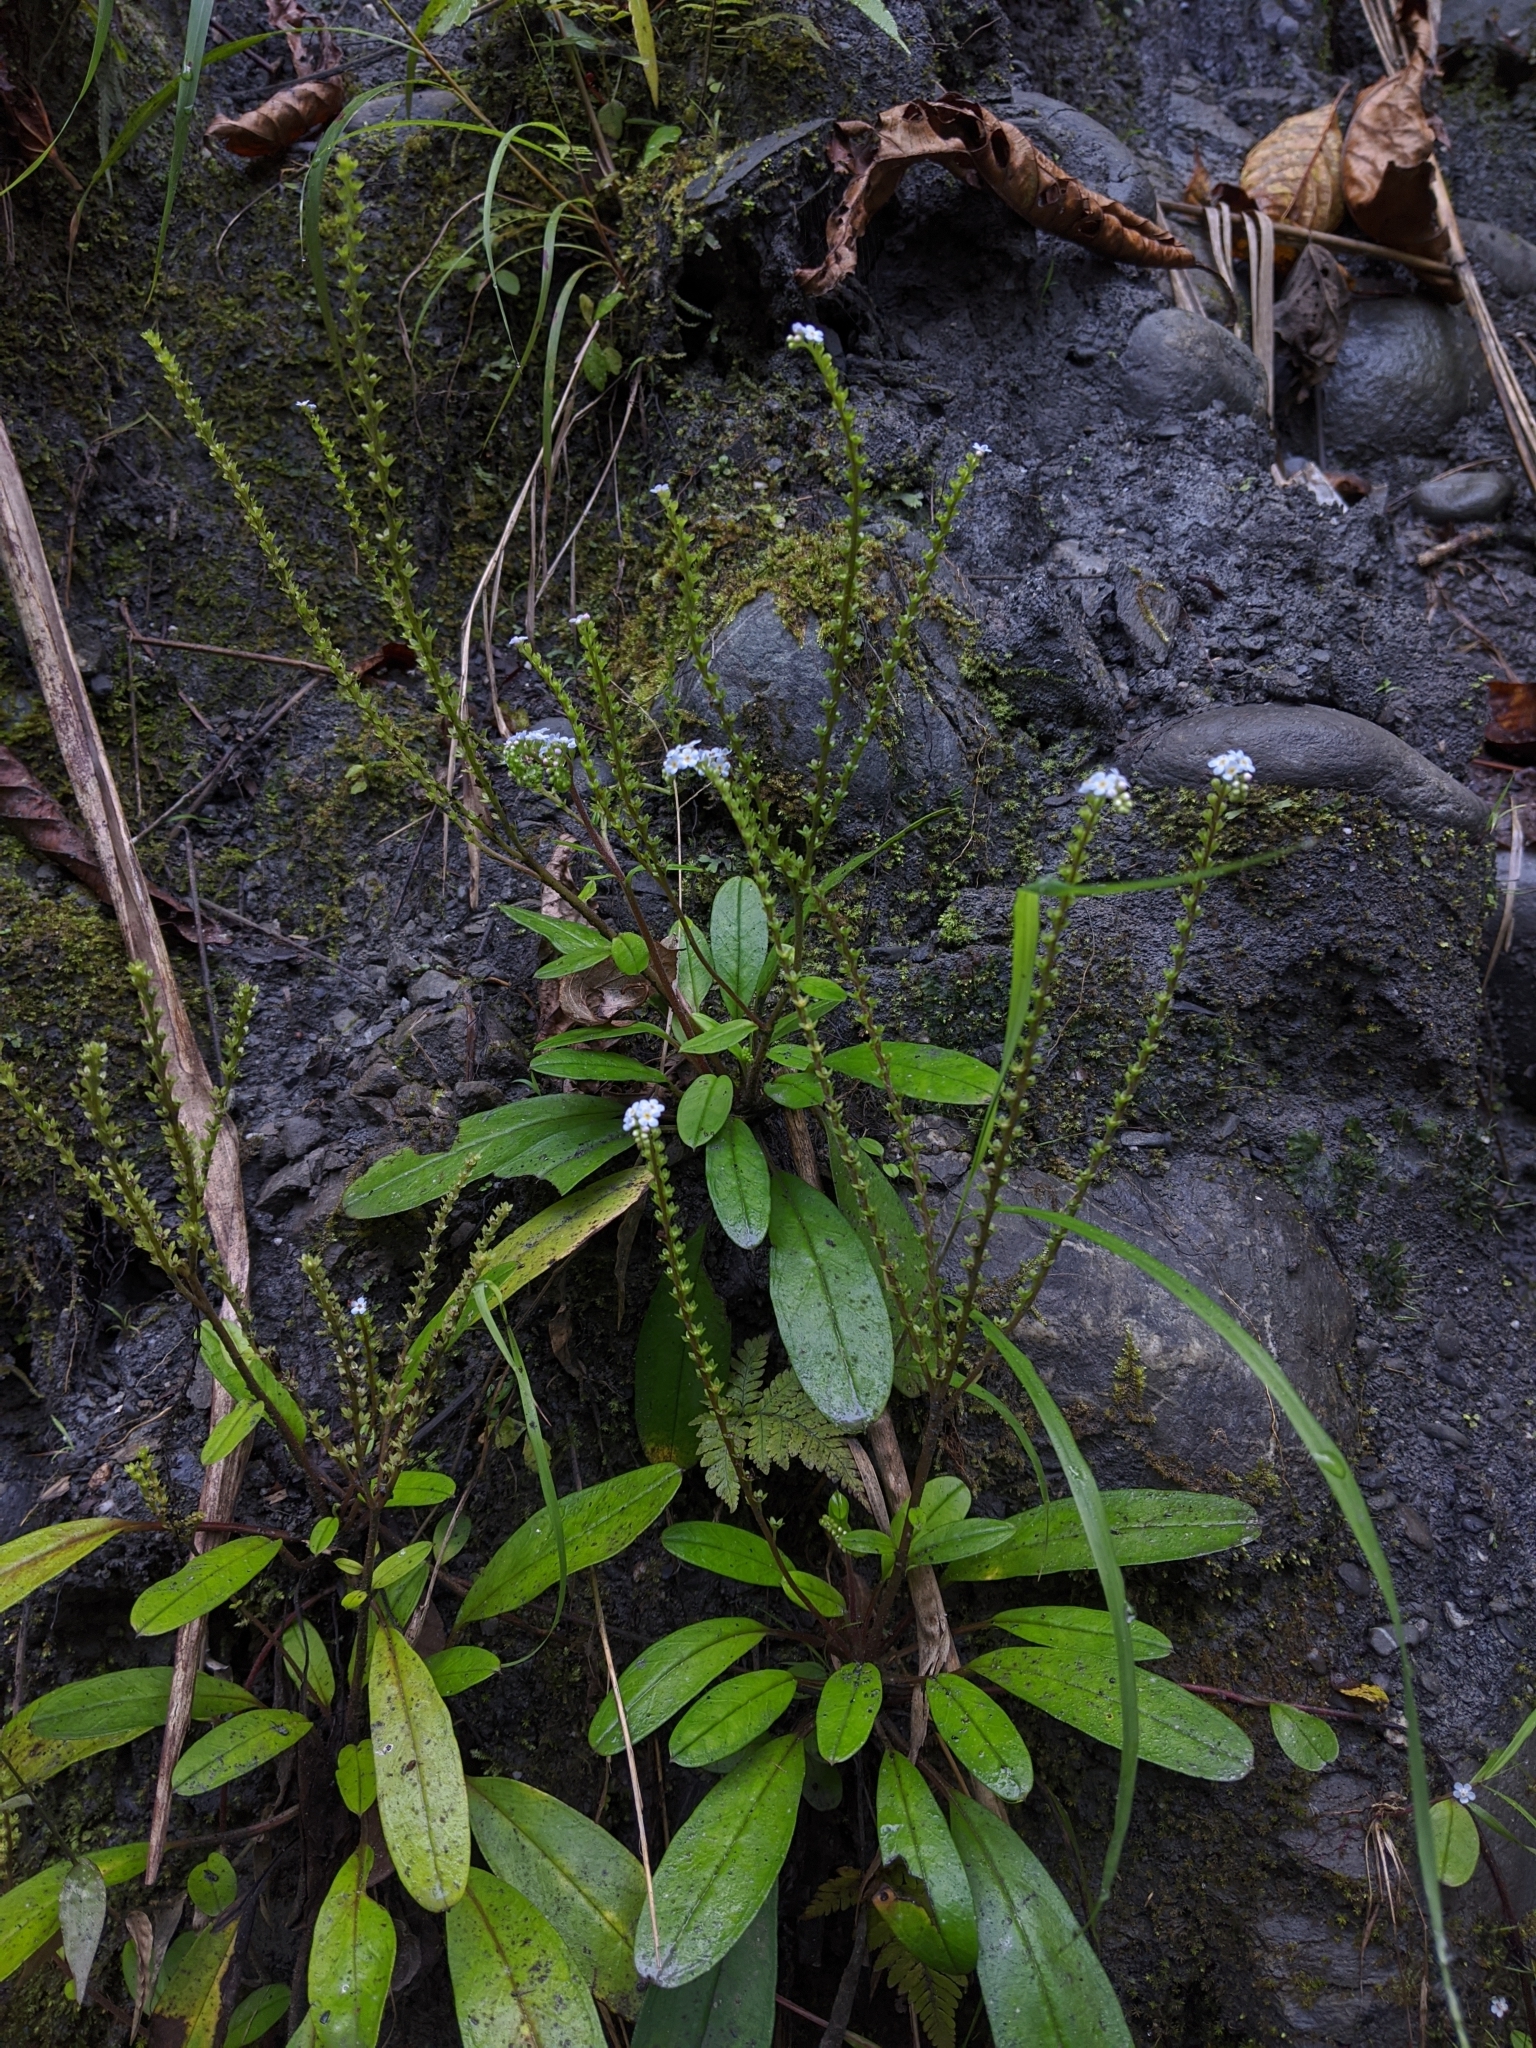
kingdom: Plantae
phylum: Tracheophyta
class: Magnoliopsida
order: Boraginales
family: Boraginaceae
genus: Trigonotis
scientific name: Trigonotis formosana
